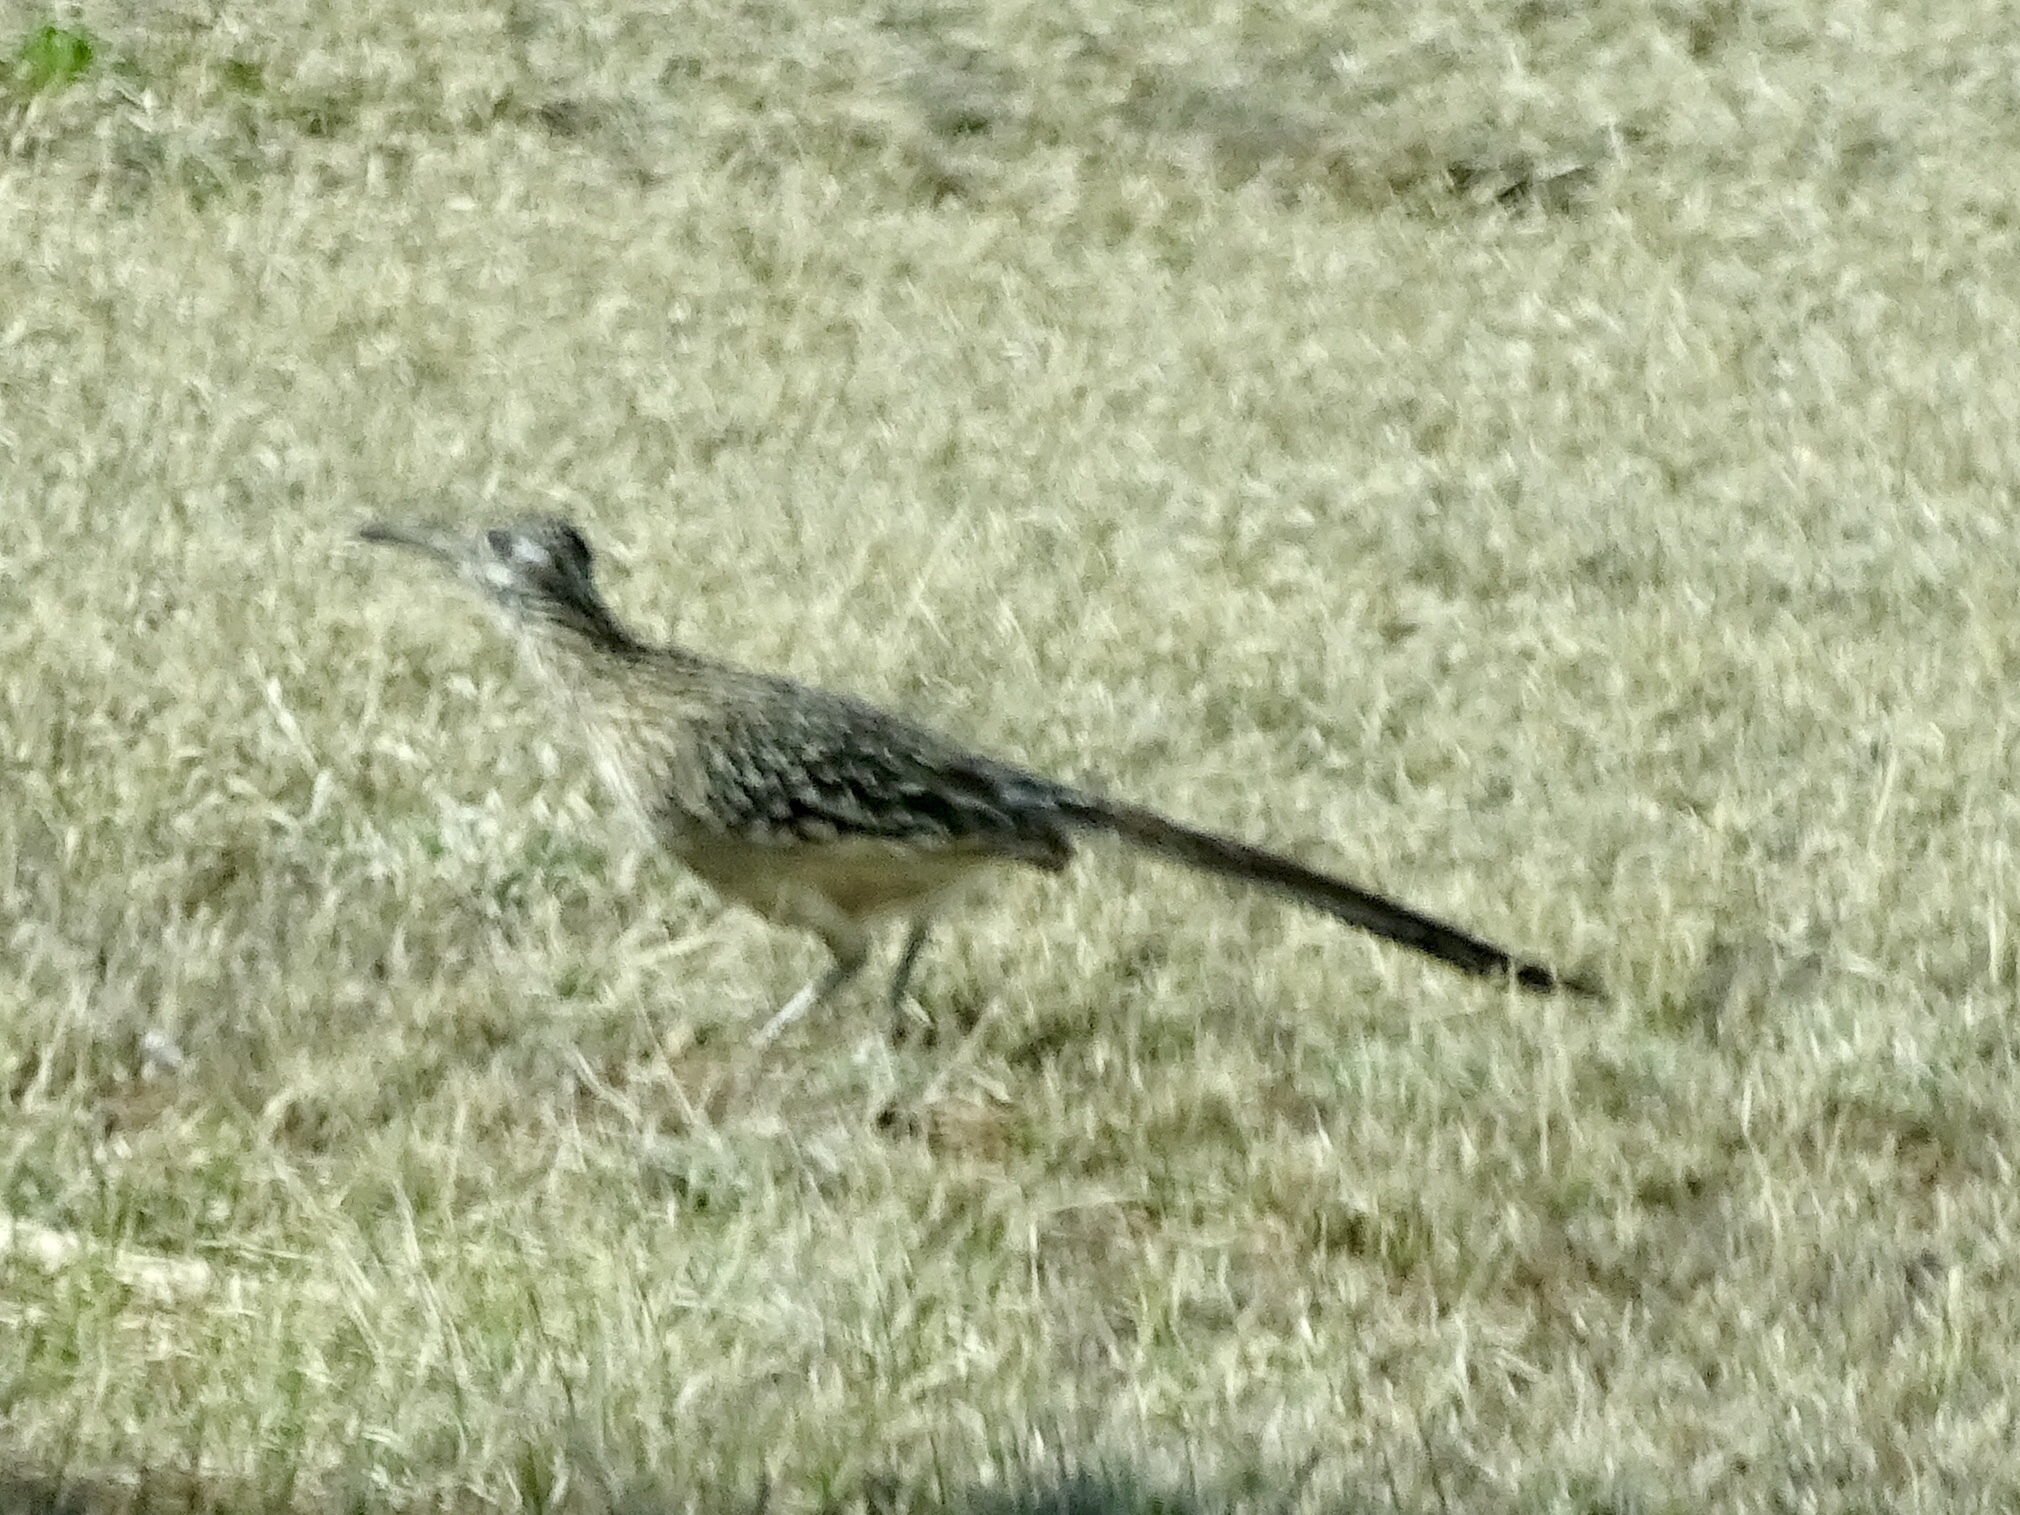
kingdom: Animalia
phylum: Chordata
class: Aves
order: Cuculiformes
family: Cuculidae
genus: Geococcyx
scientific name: Geococcyx californianus
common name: Greater roadrunner
